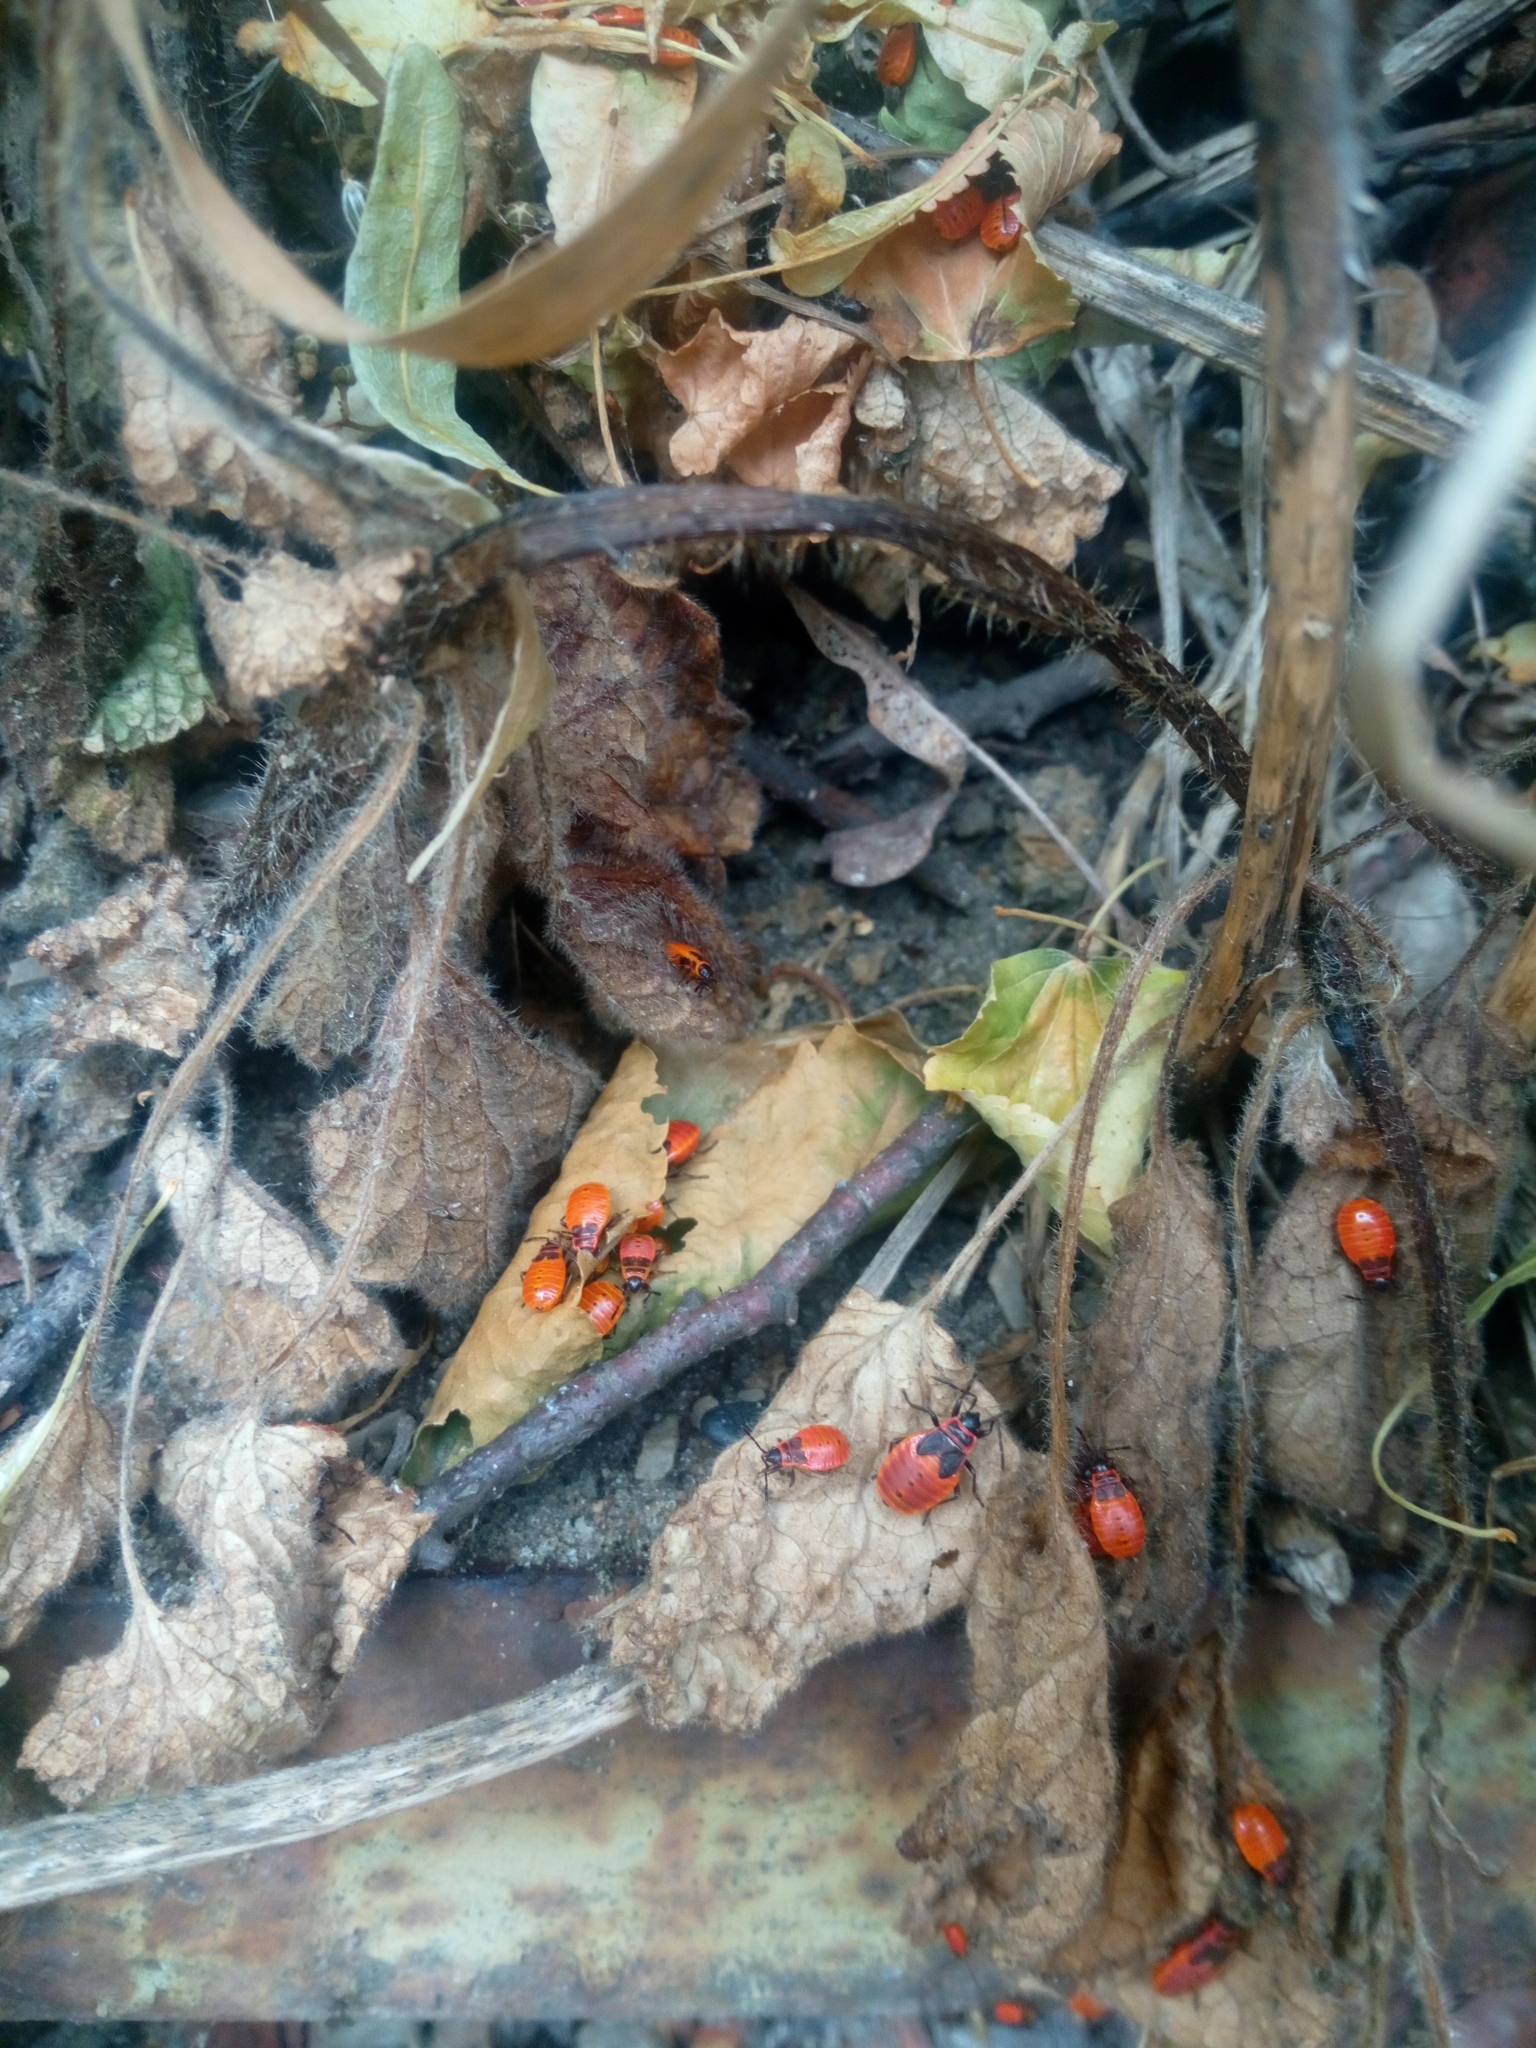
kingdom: Animalia
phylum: Arthropoda
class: Insecta
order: Hemiptera
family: Pyrrhocoridae
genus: Pyrrhocoris
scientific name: Pyrrhocoris apterus
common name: Firebug
